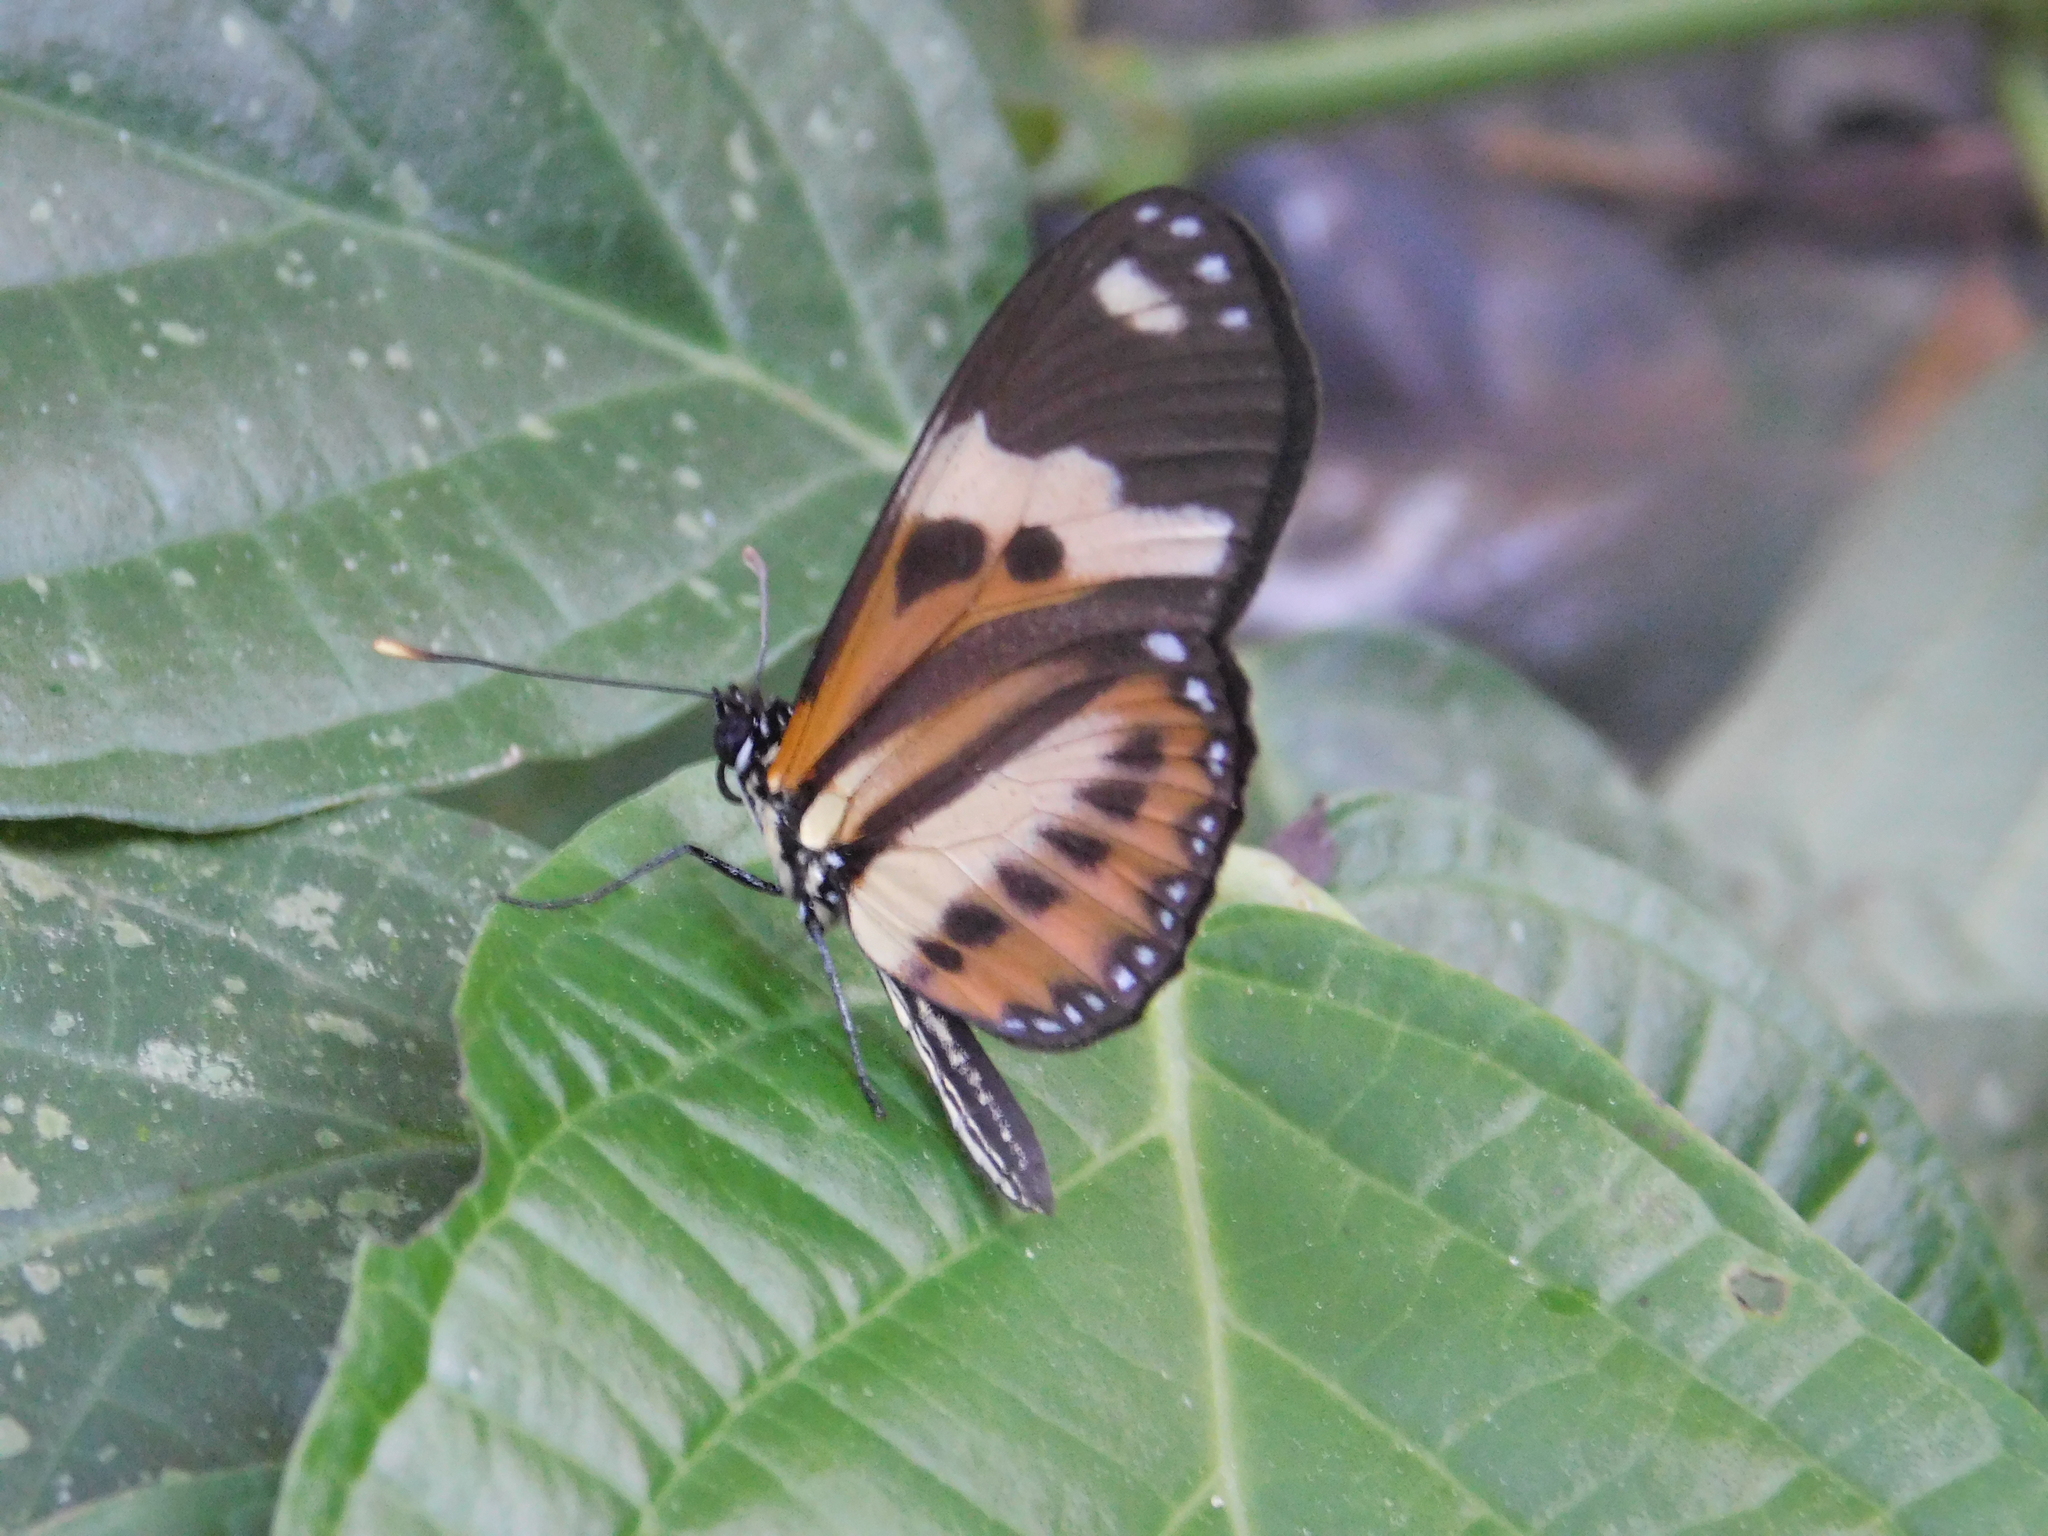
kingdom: Animalia
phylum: Arthropoda
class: Insecta
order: Lepidoptera
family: Nymphalidae
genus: Eueides
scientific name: Eueides isabella
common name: Isabella's longwing
